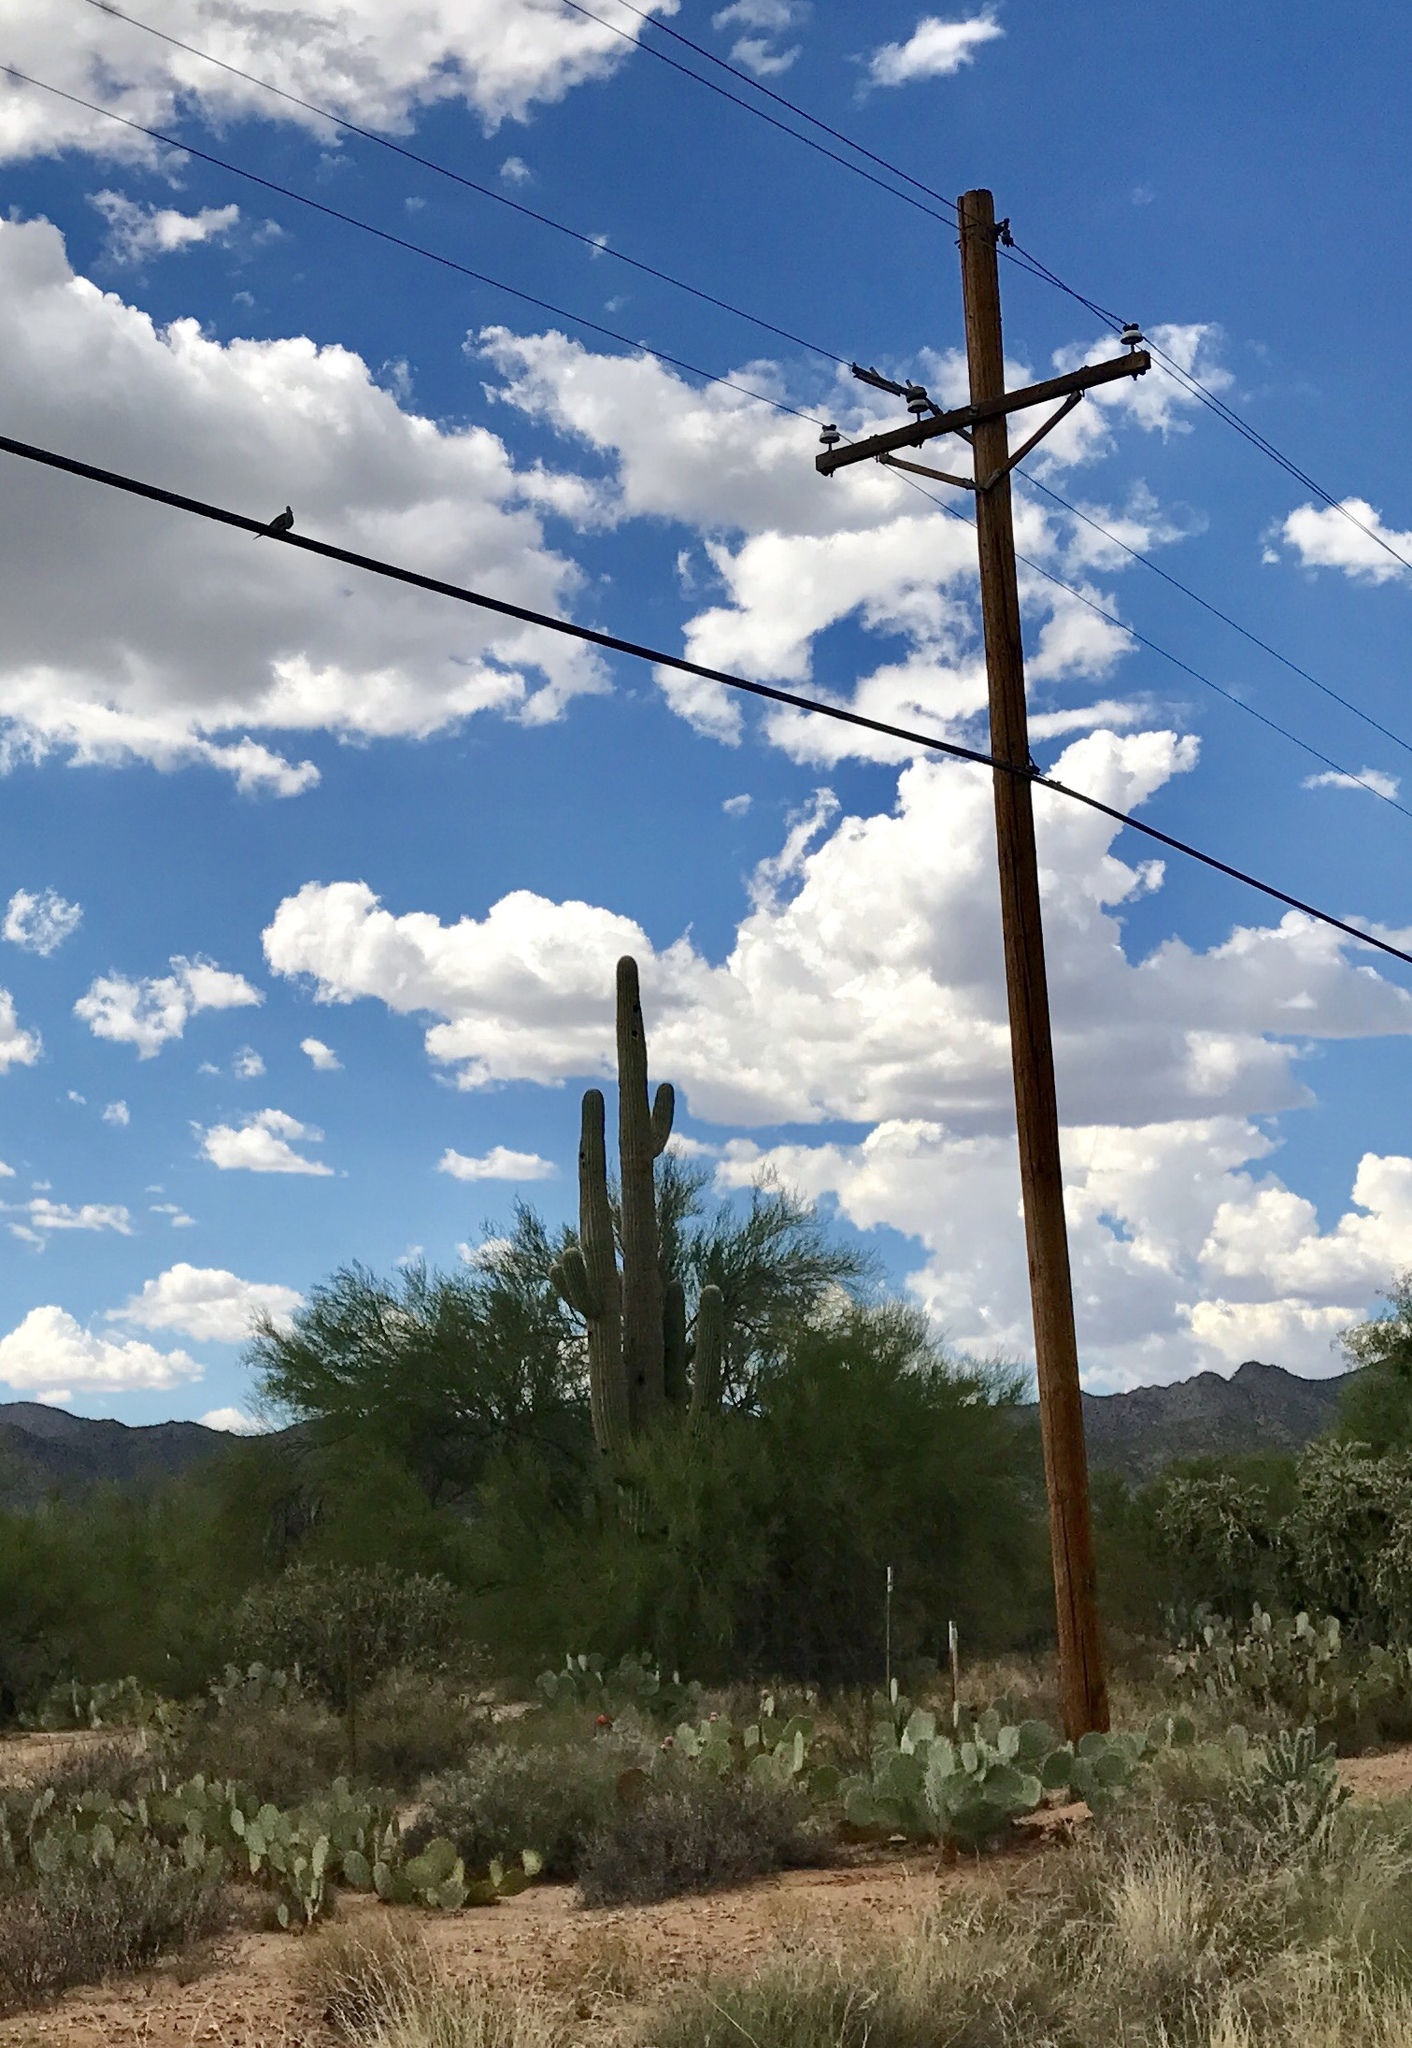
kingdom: Plantae
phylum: Tracheophyta
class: Magnoliopsida
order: Caryophyllales
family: Cactaceae
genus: Carnegiea
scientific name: Carnegiea gigantea
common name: Saguaro
